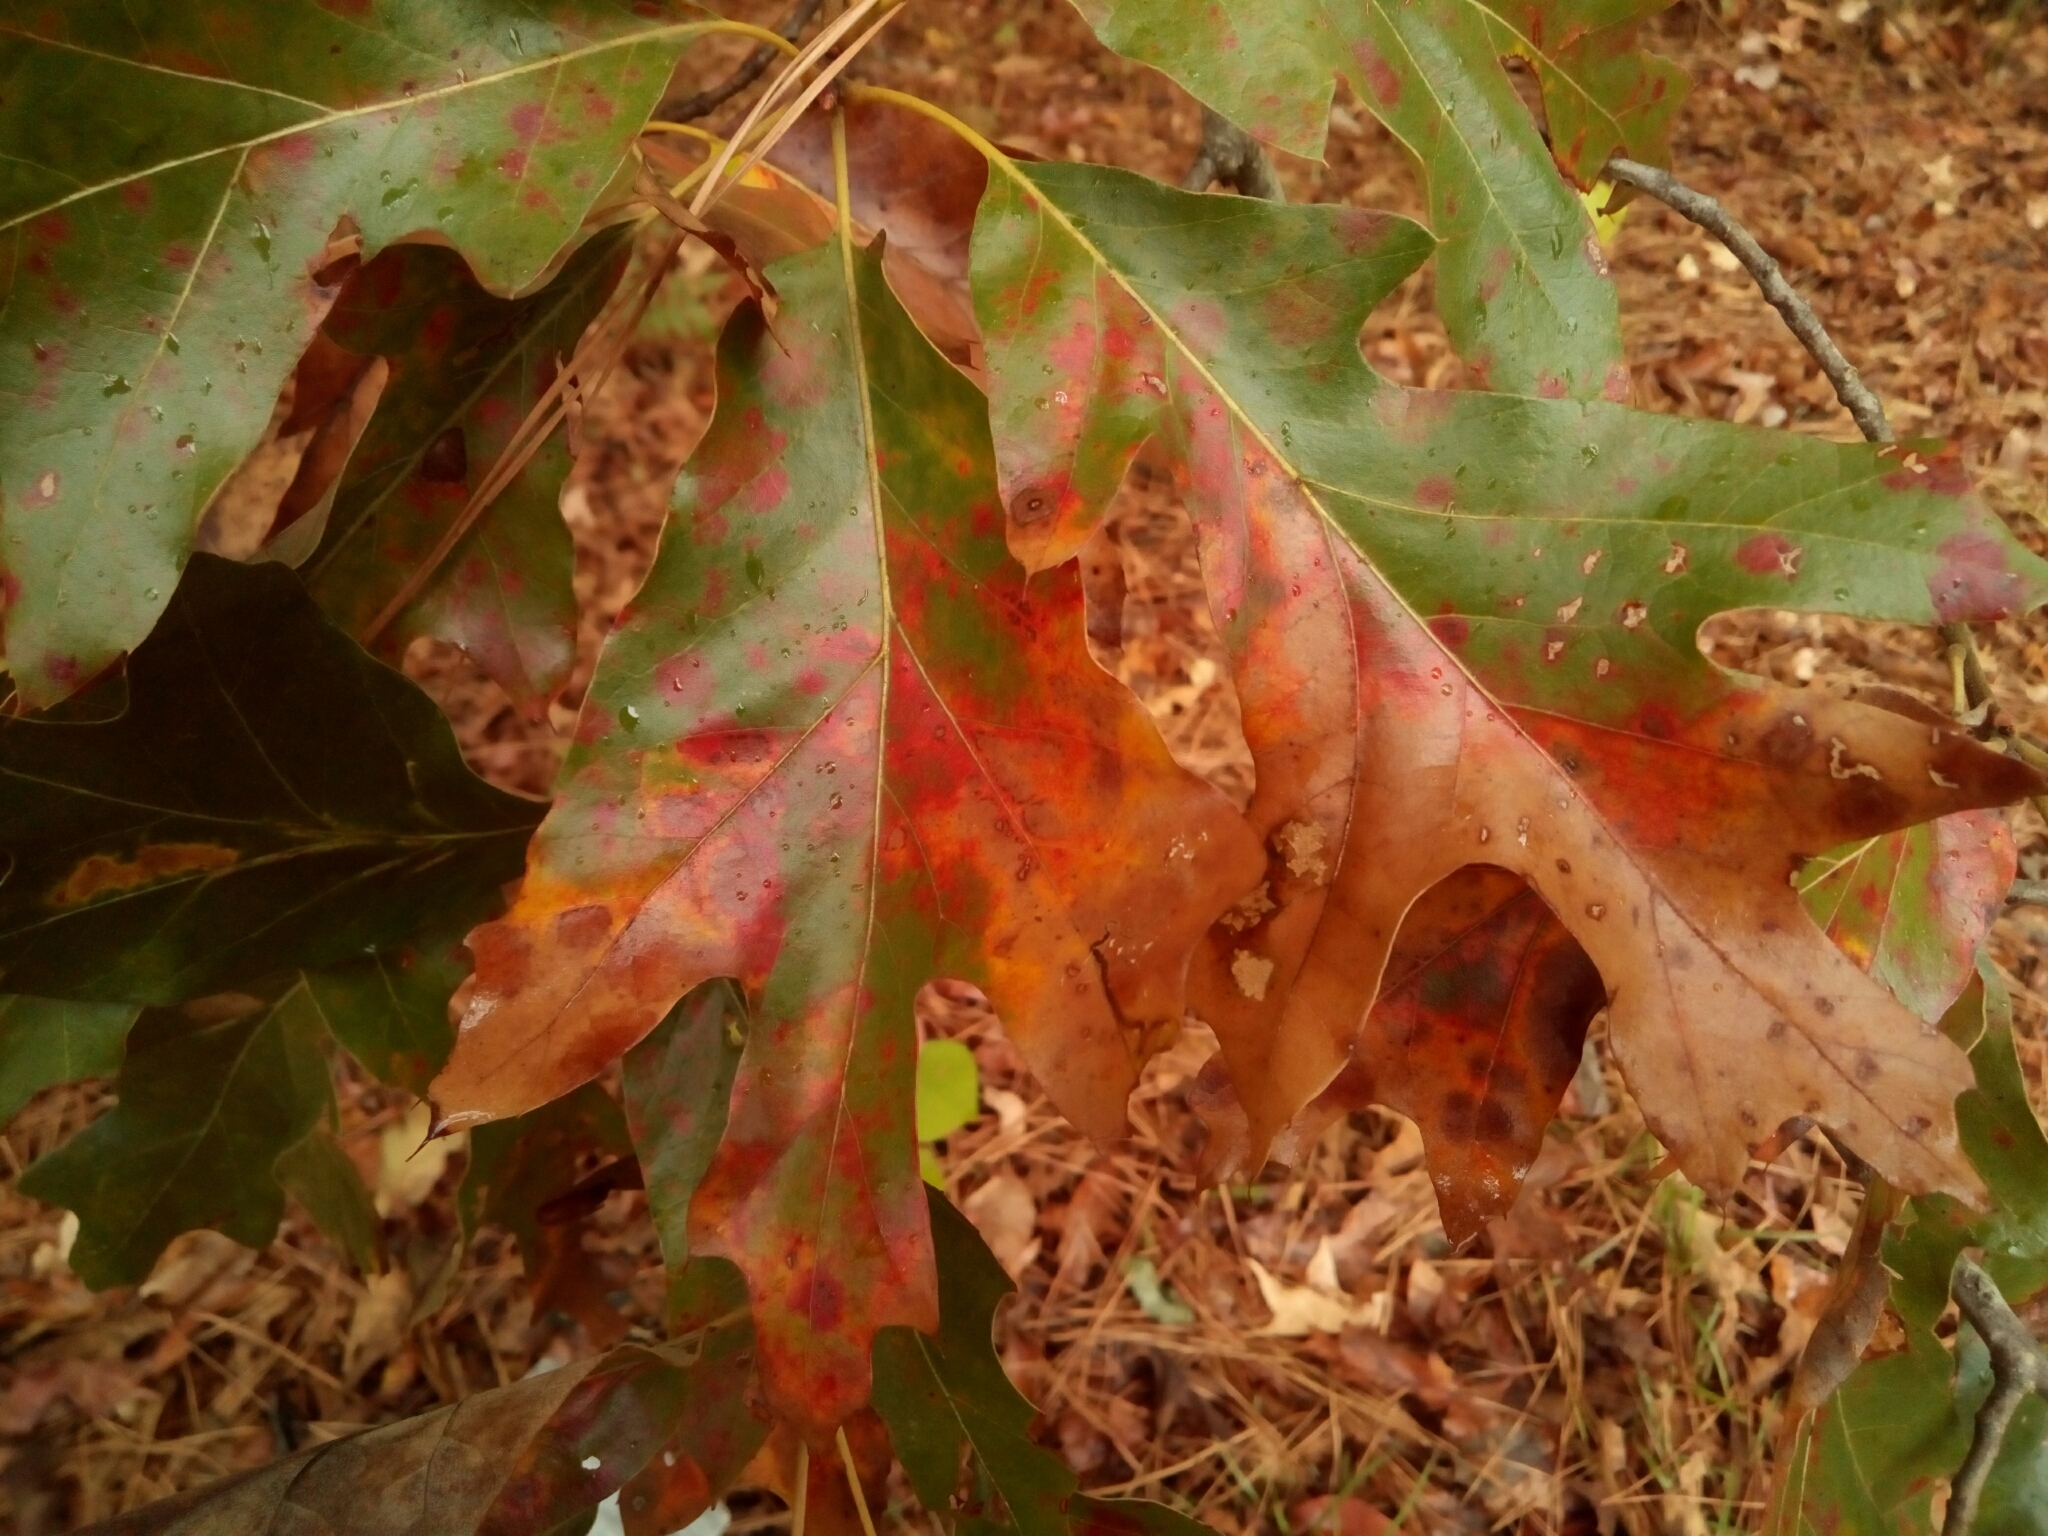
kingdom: Plantae
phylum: Tracheophyta
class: Magnoliopsida
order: Fagales
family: Fagaceae
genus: Quercus
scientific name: Quercus falcata
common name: Southern red oak
